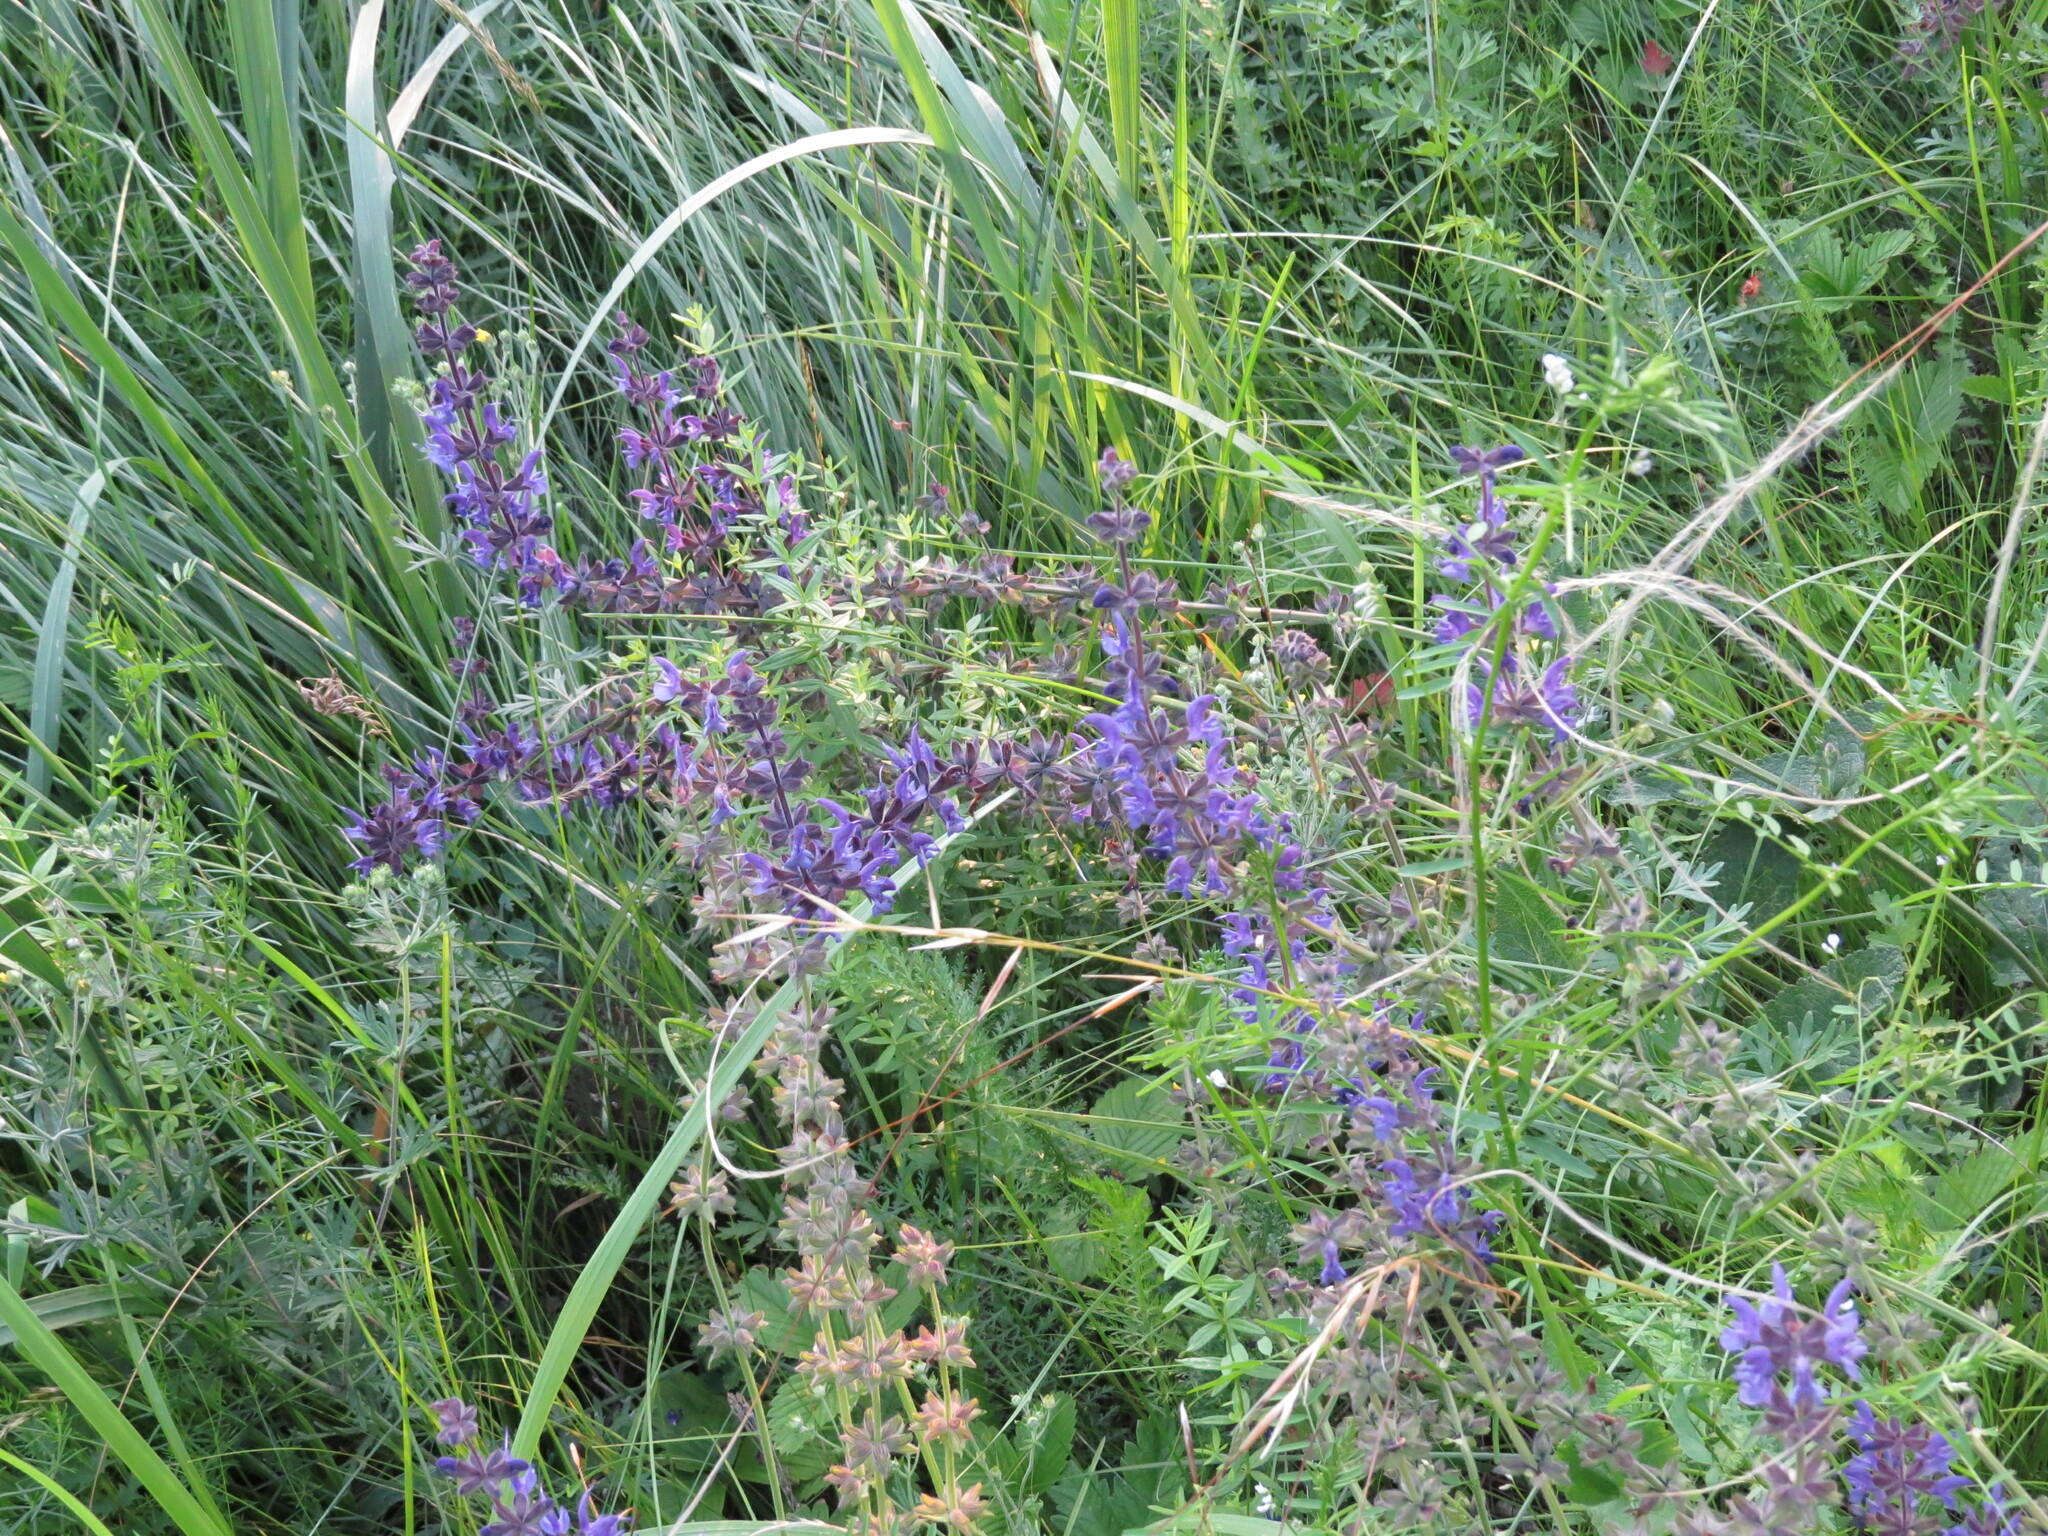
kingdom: Plantae
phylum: Tracheophyta
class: Magnoliopsida
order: Lamiales
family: Lamiaceae
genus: Salvia
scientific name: Salvia dumetorum
